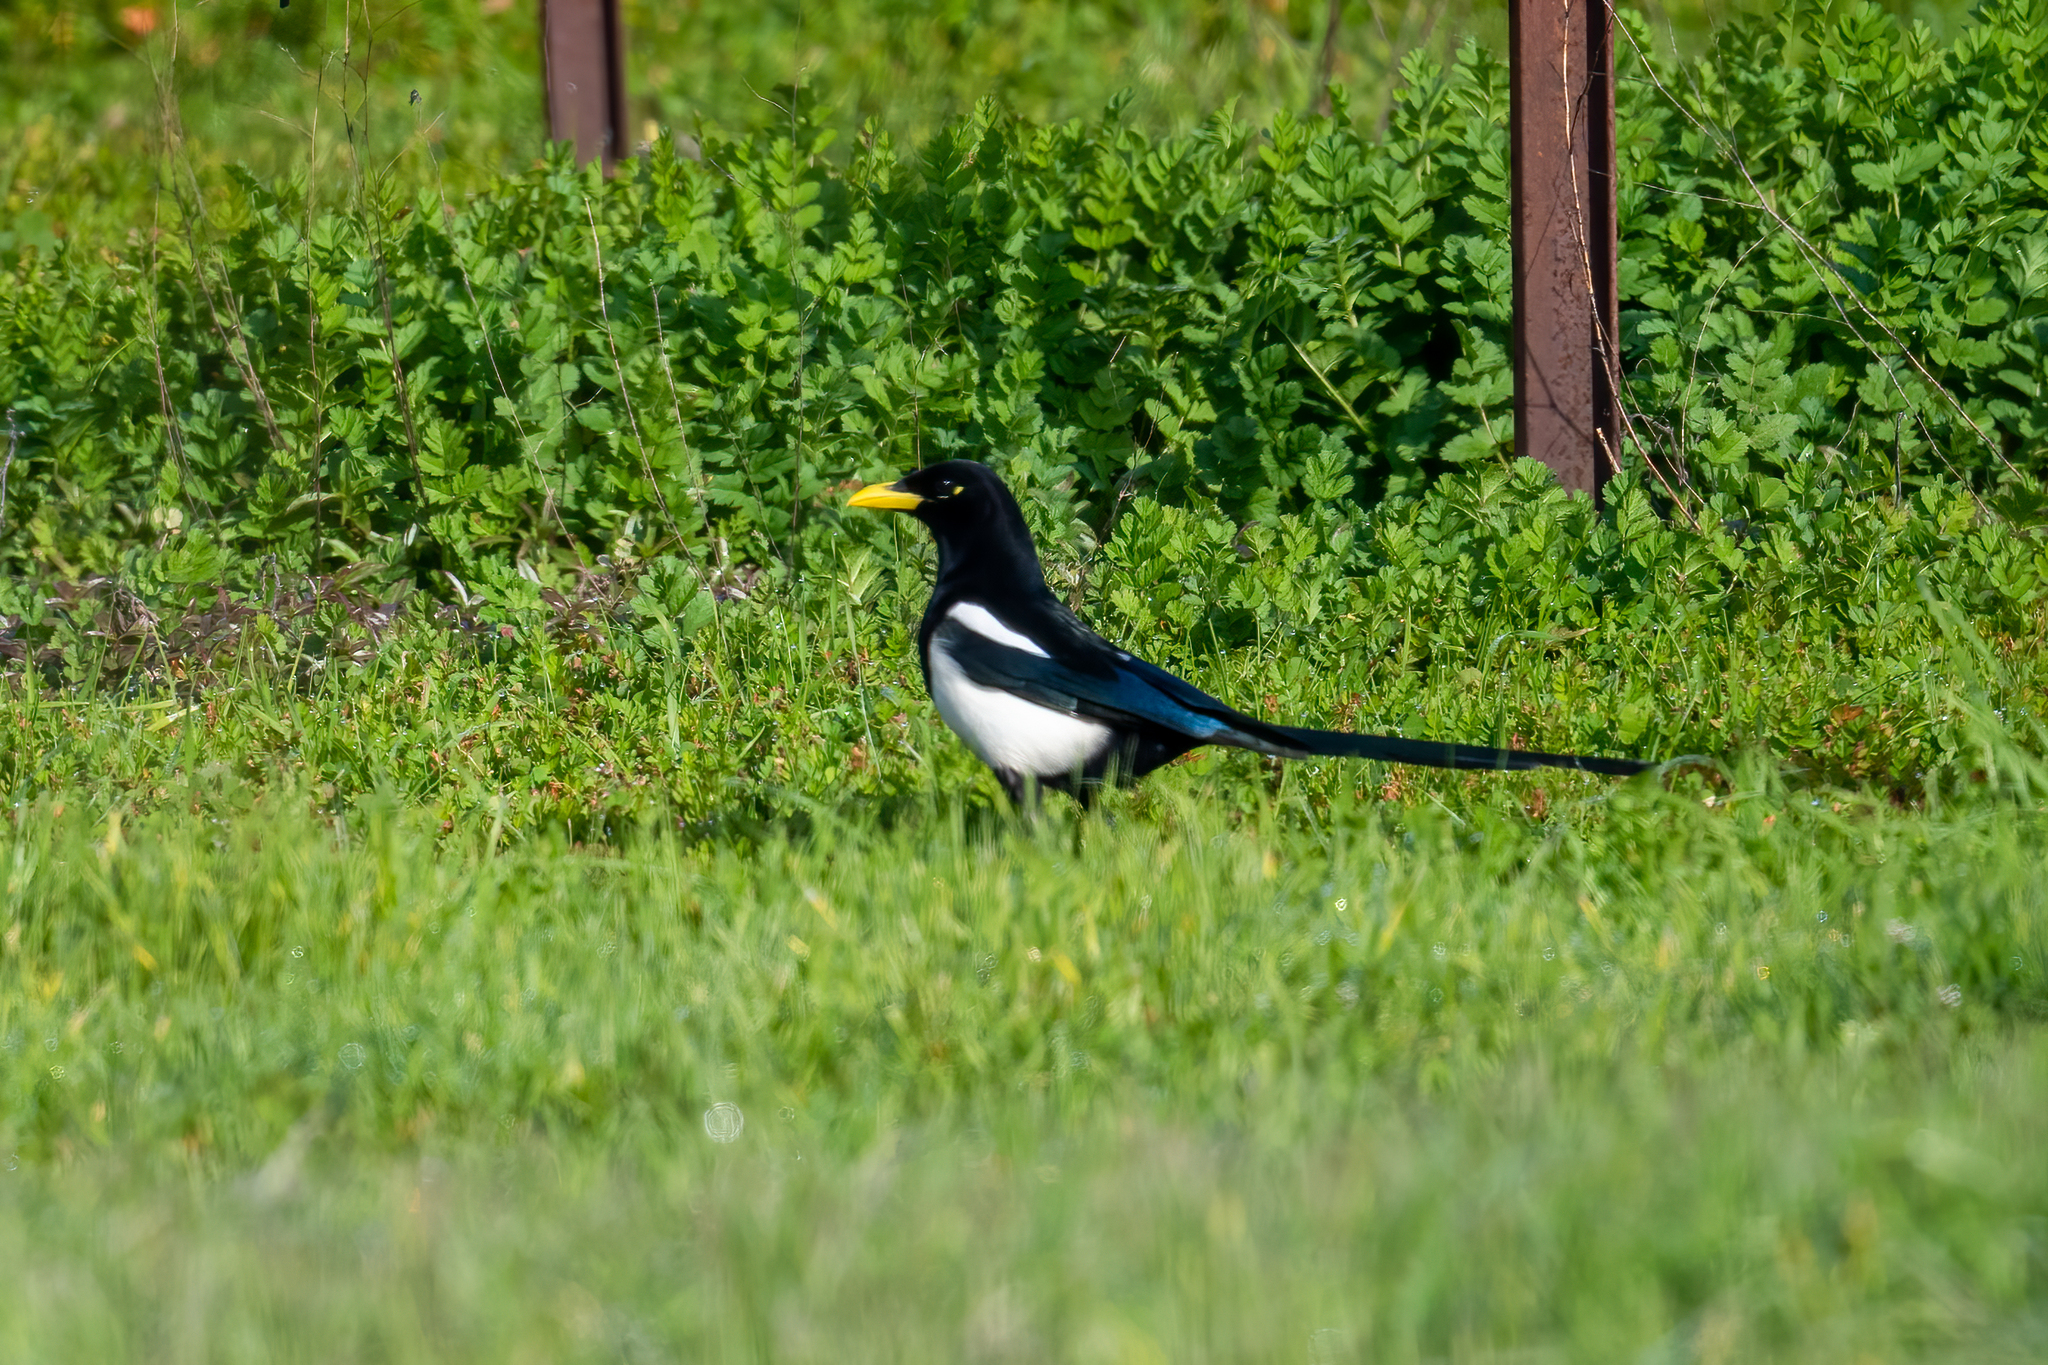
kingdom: Animalia
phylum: Chordata
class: Aves
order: Passeriformes
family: Corvidae
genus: Pica
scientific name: Pica nuttalli
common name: Yellow-billed magpie
